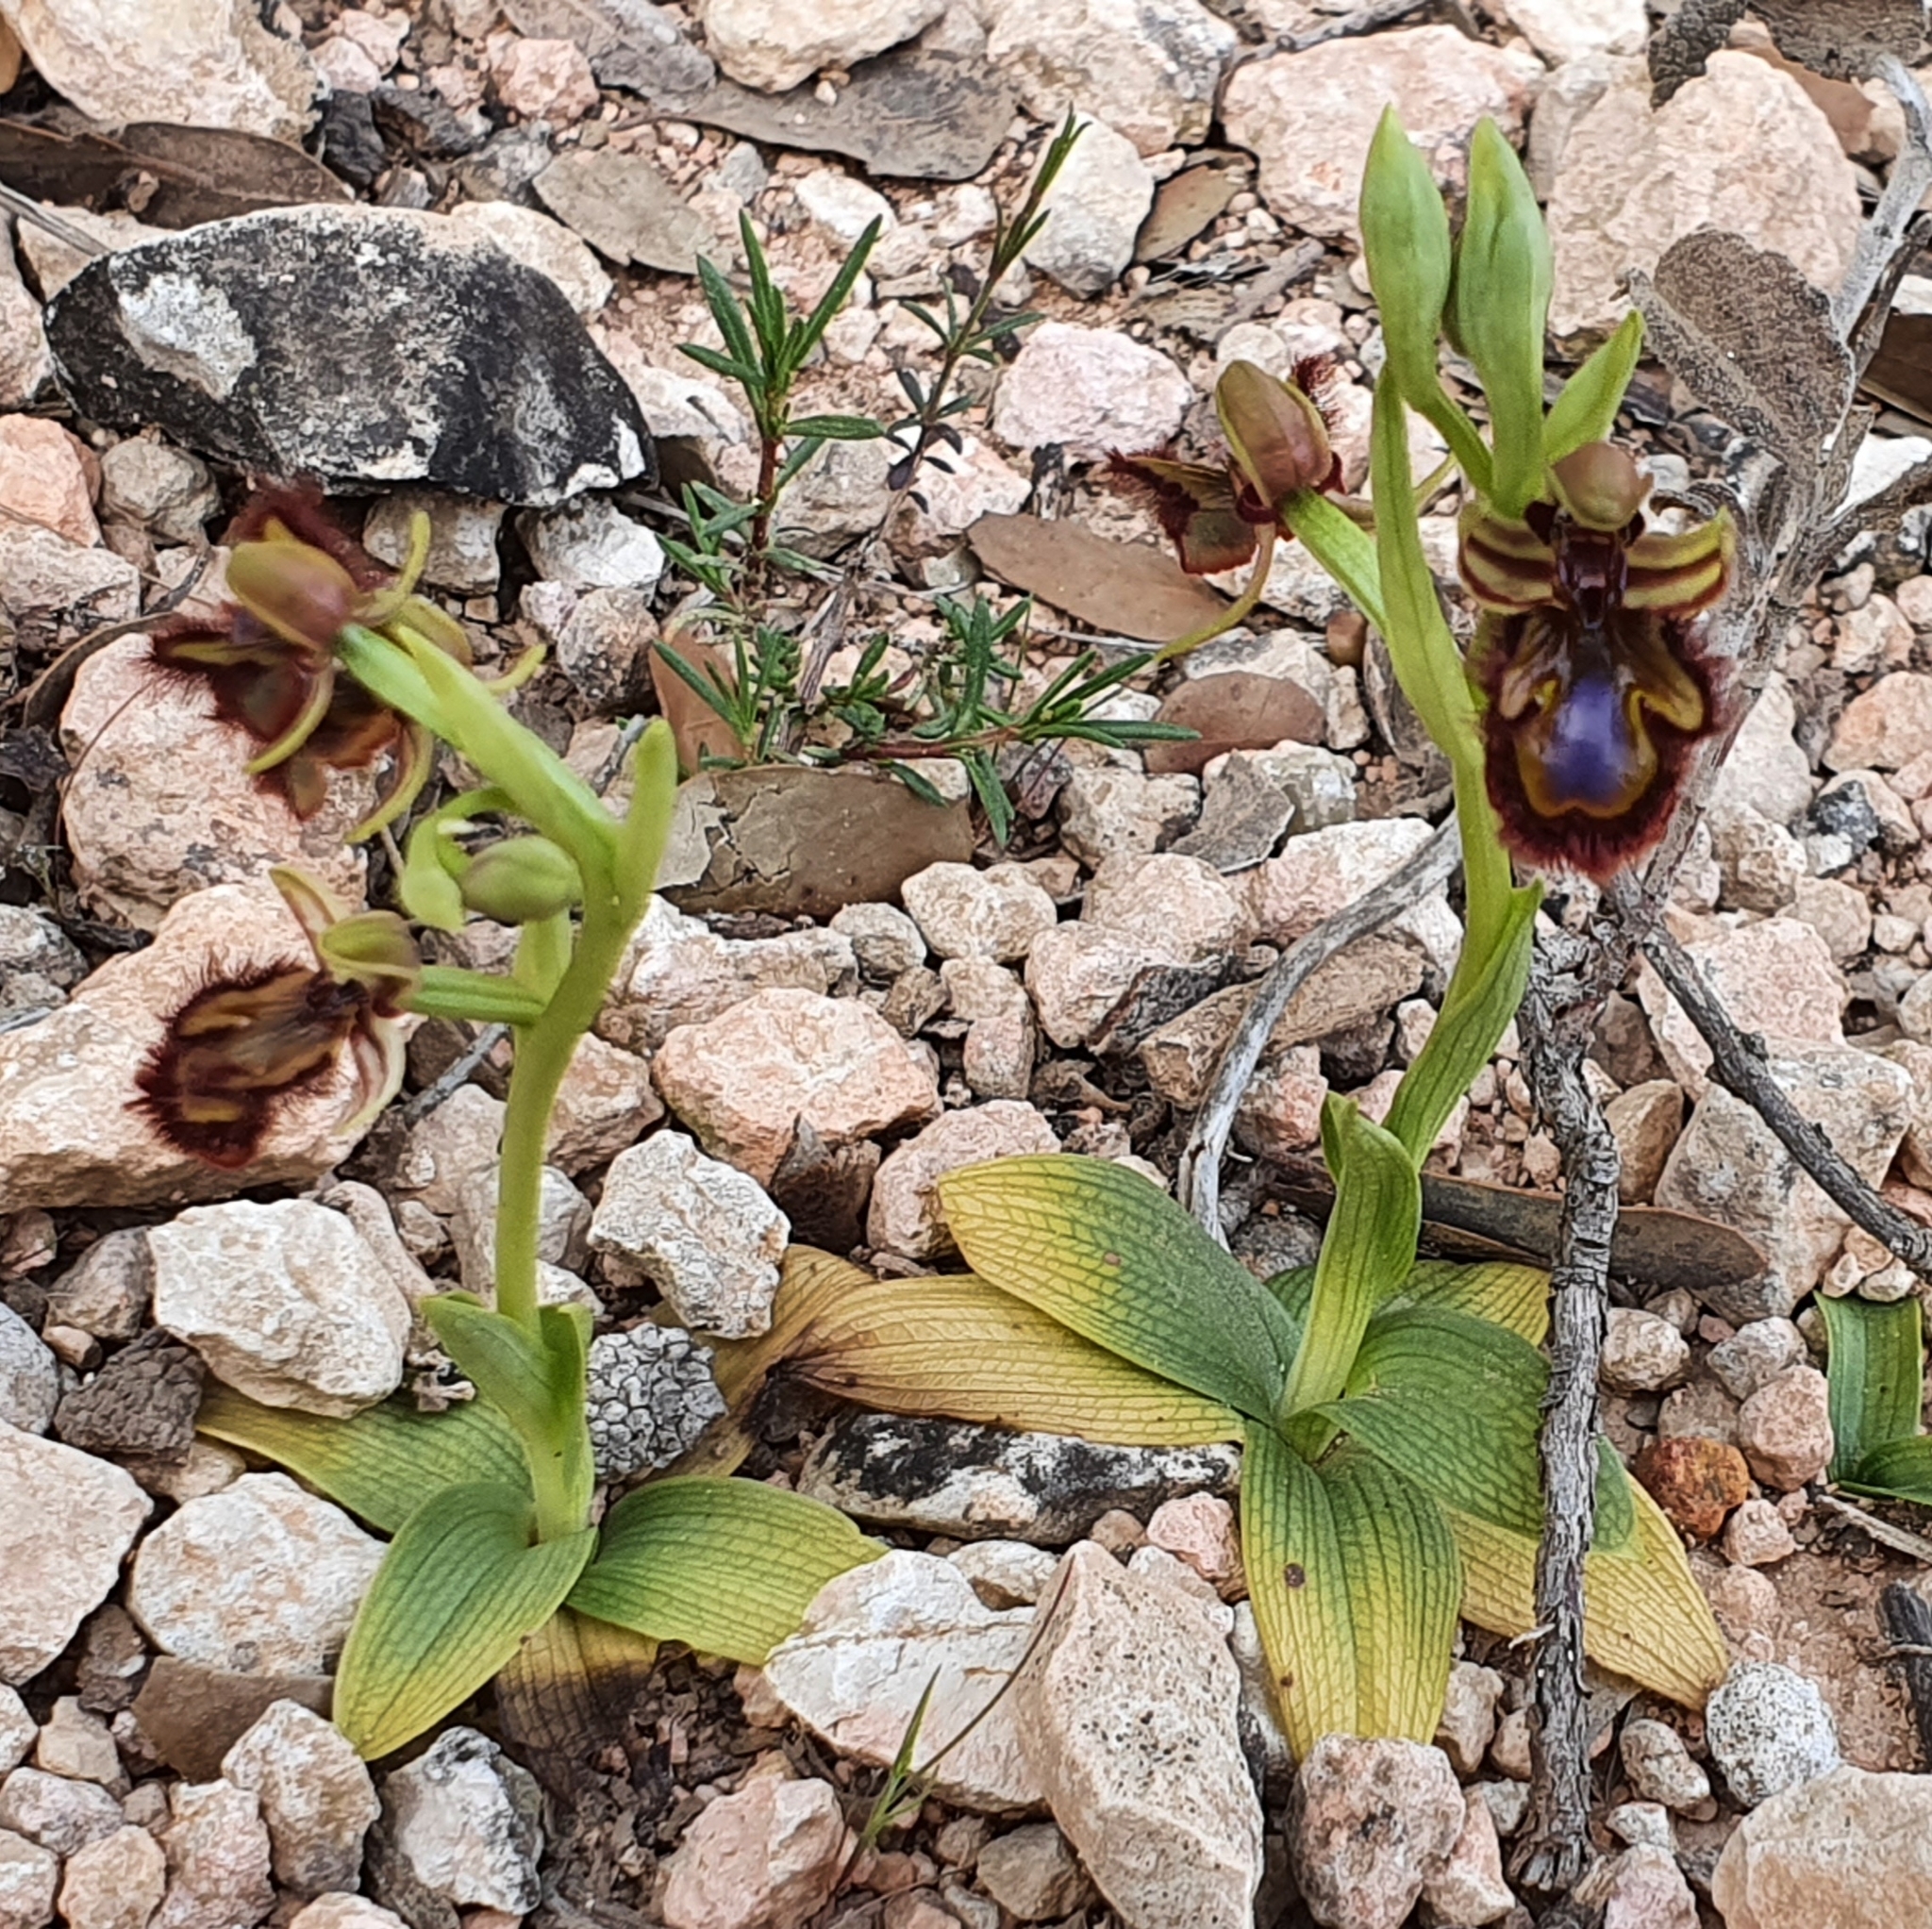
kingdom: Plantae
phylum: Tracheophyta
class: Liliopsida
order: Asparagales
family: Orchidaceae
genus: Ophrys
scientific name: Ophrys speculum
